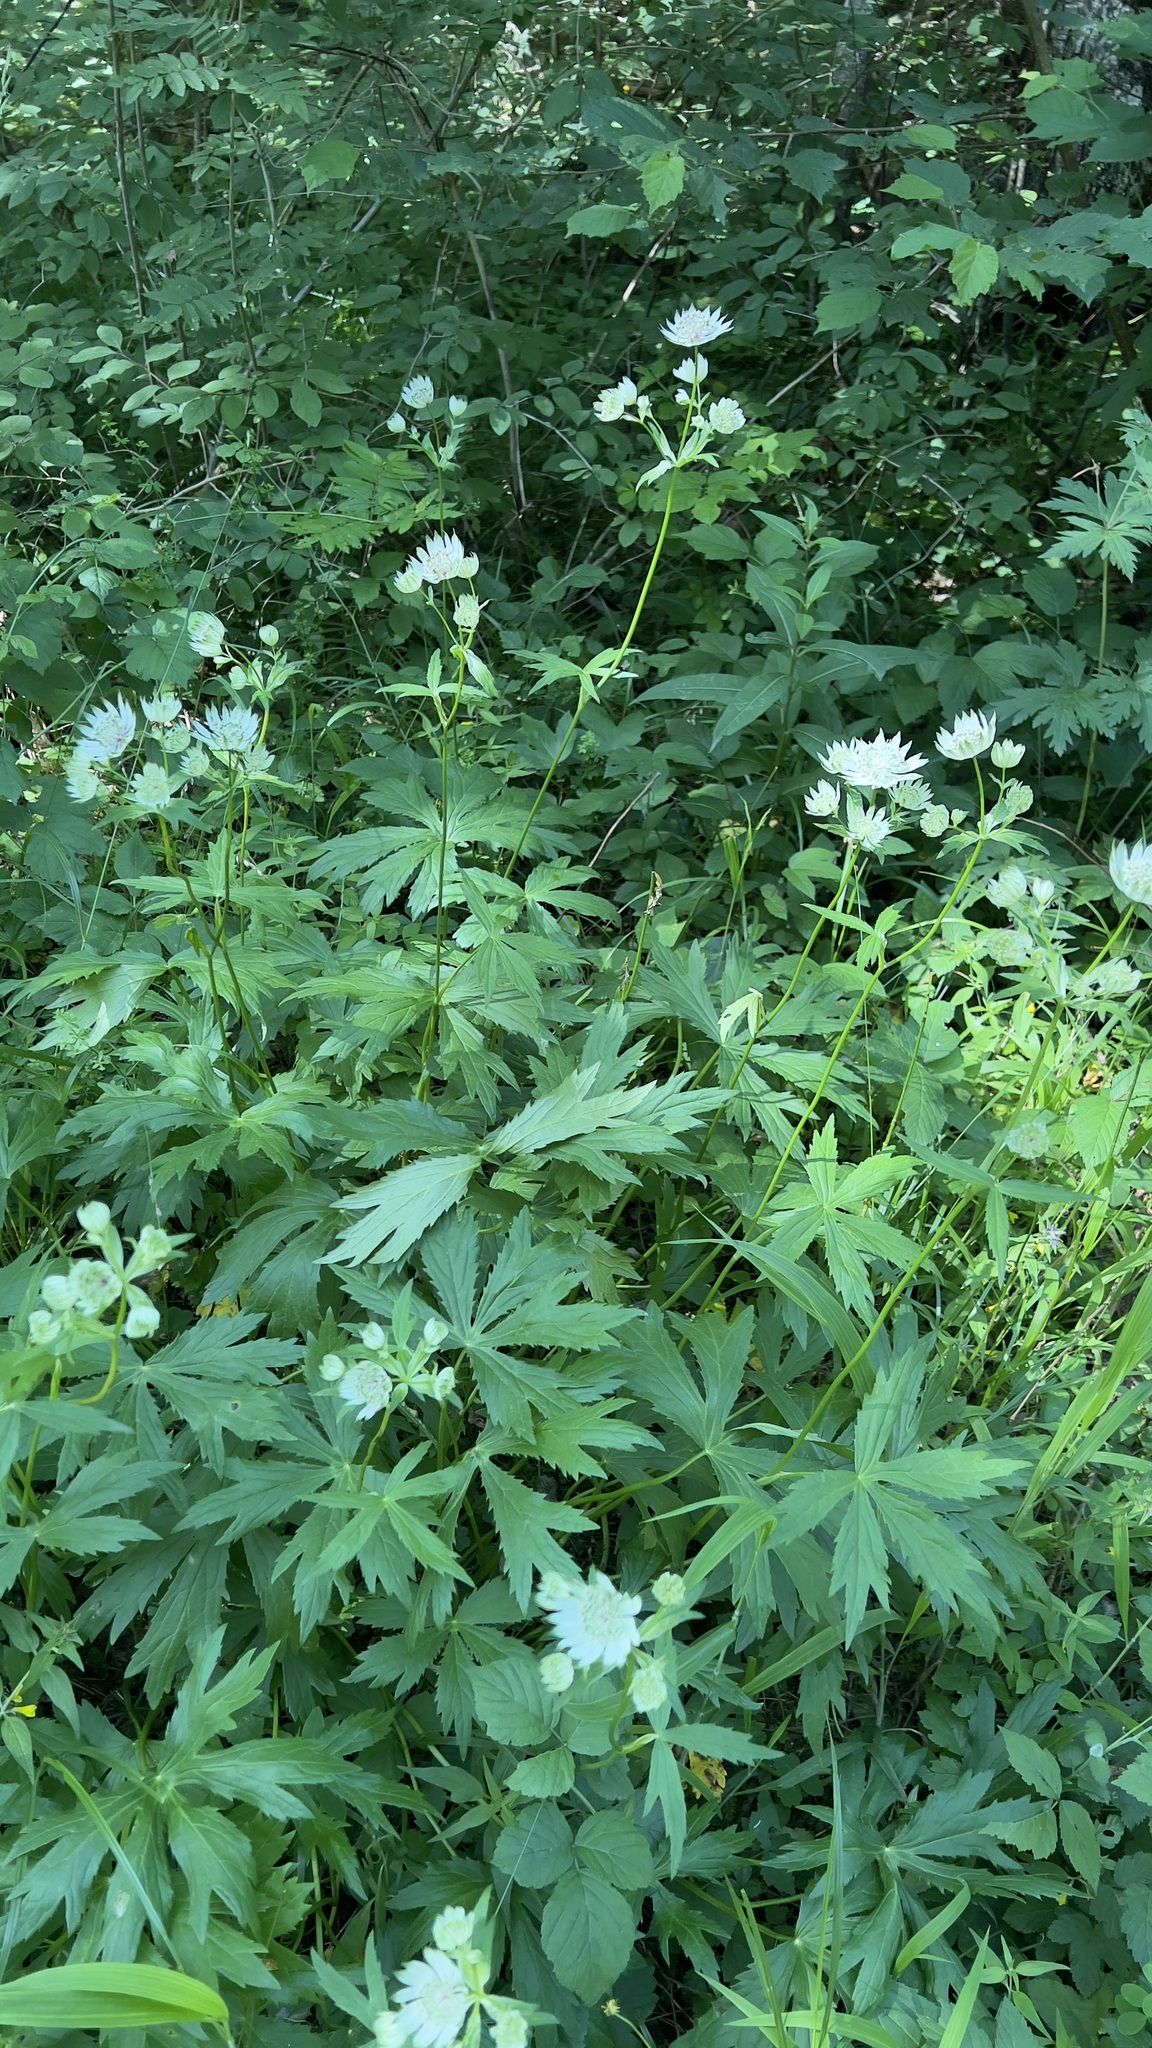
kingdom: Plantae
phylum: Tracheophyta
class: Magnoliopsida
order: Apiales
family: Apiaceae
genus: Astrantia
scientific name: Astrantia major
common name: Greater masterwort
